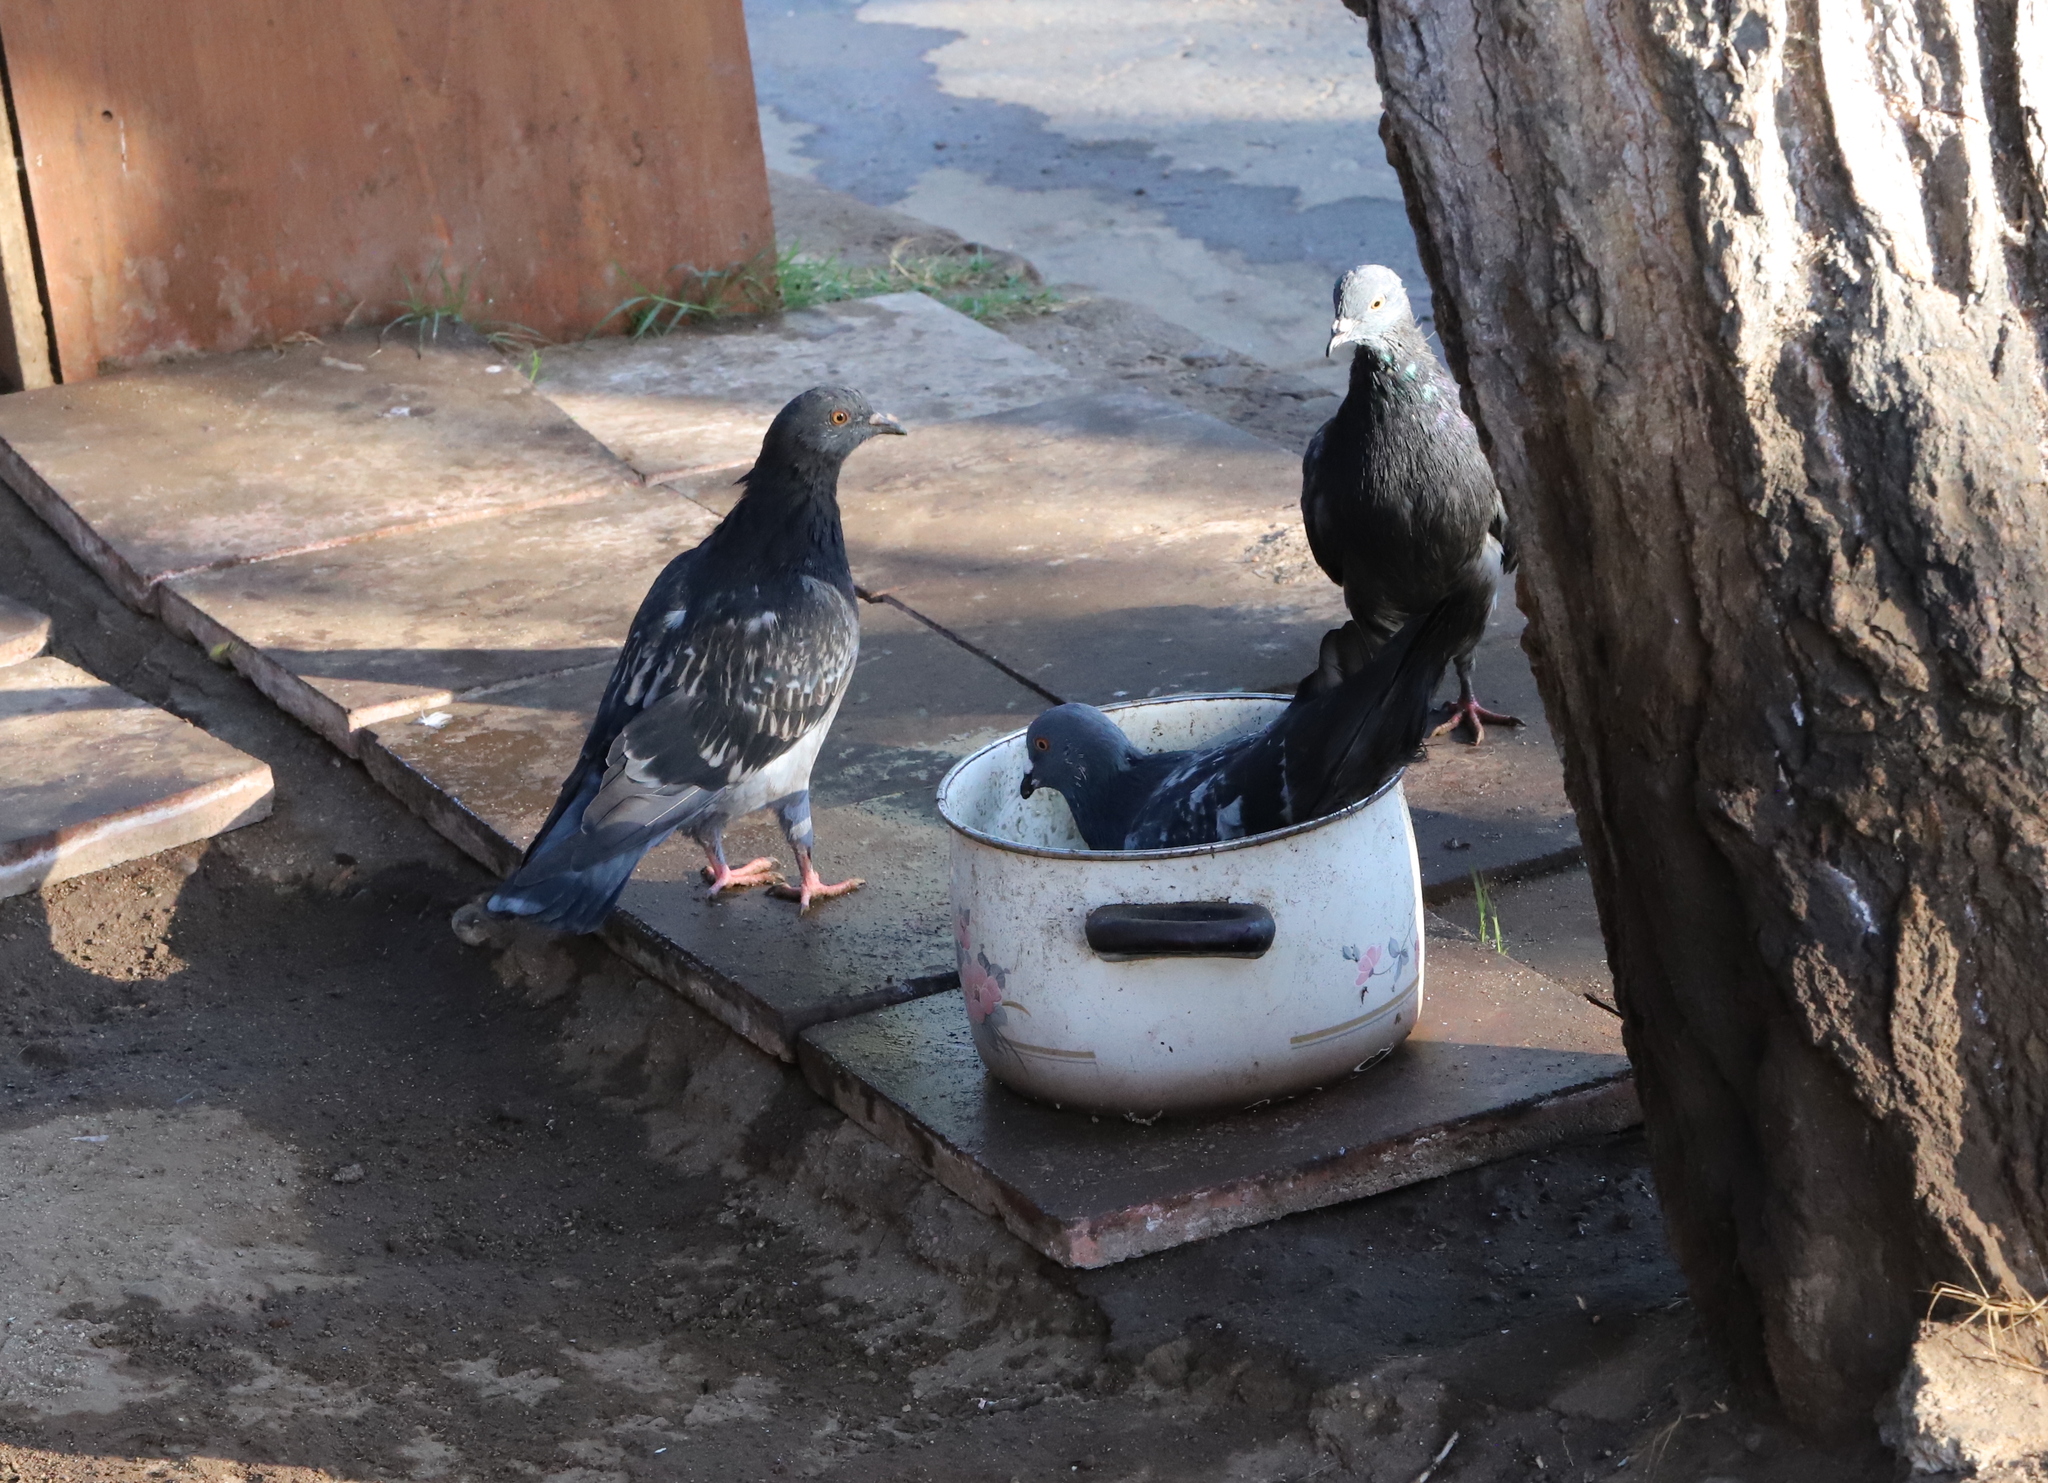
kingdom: Animalia
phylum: Chordata
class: Aves
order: Columbiformes
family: Columbidae
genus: Columba
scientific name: Columba livia
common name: Rock pigeon
